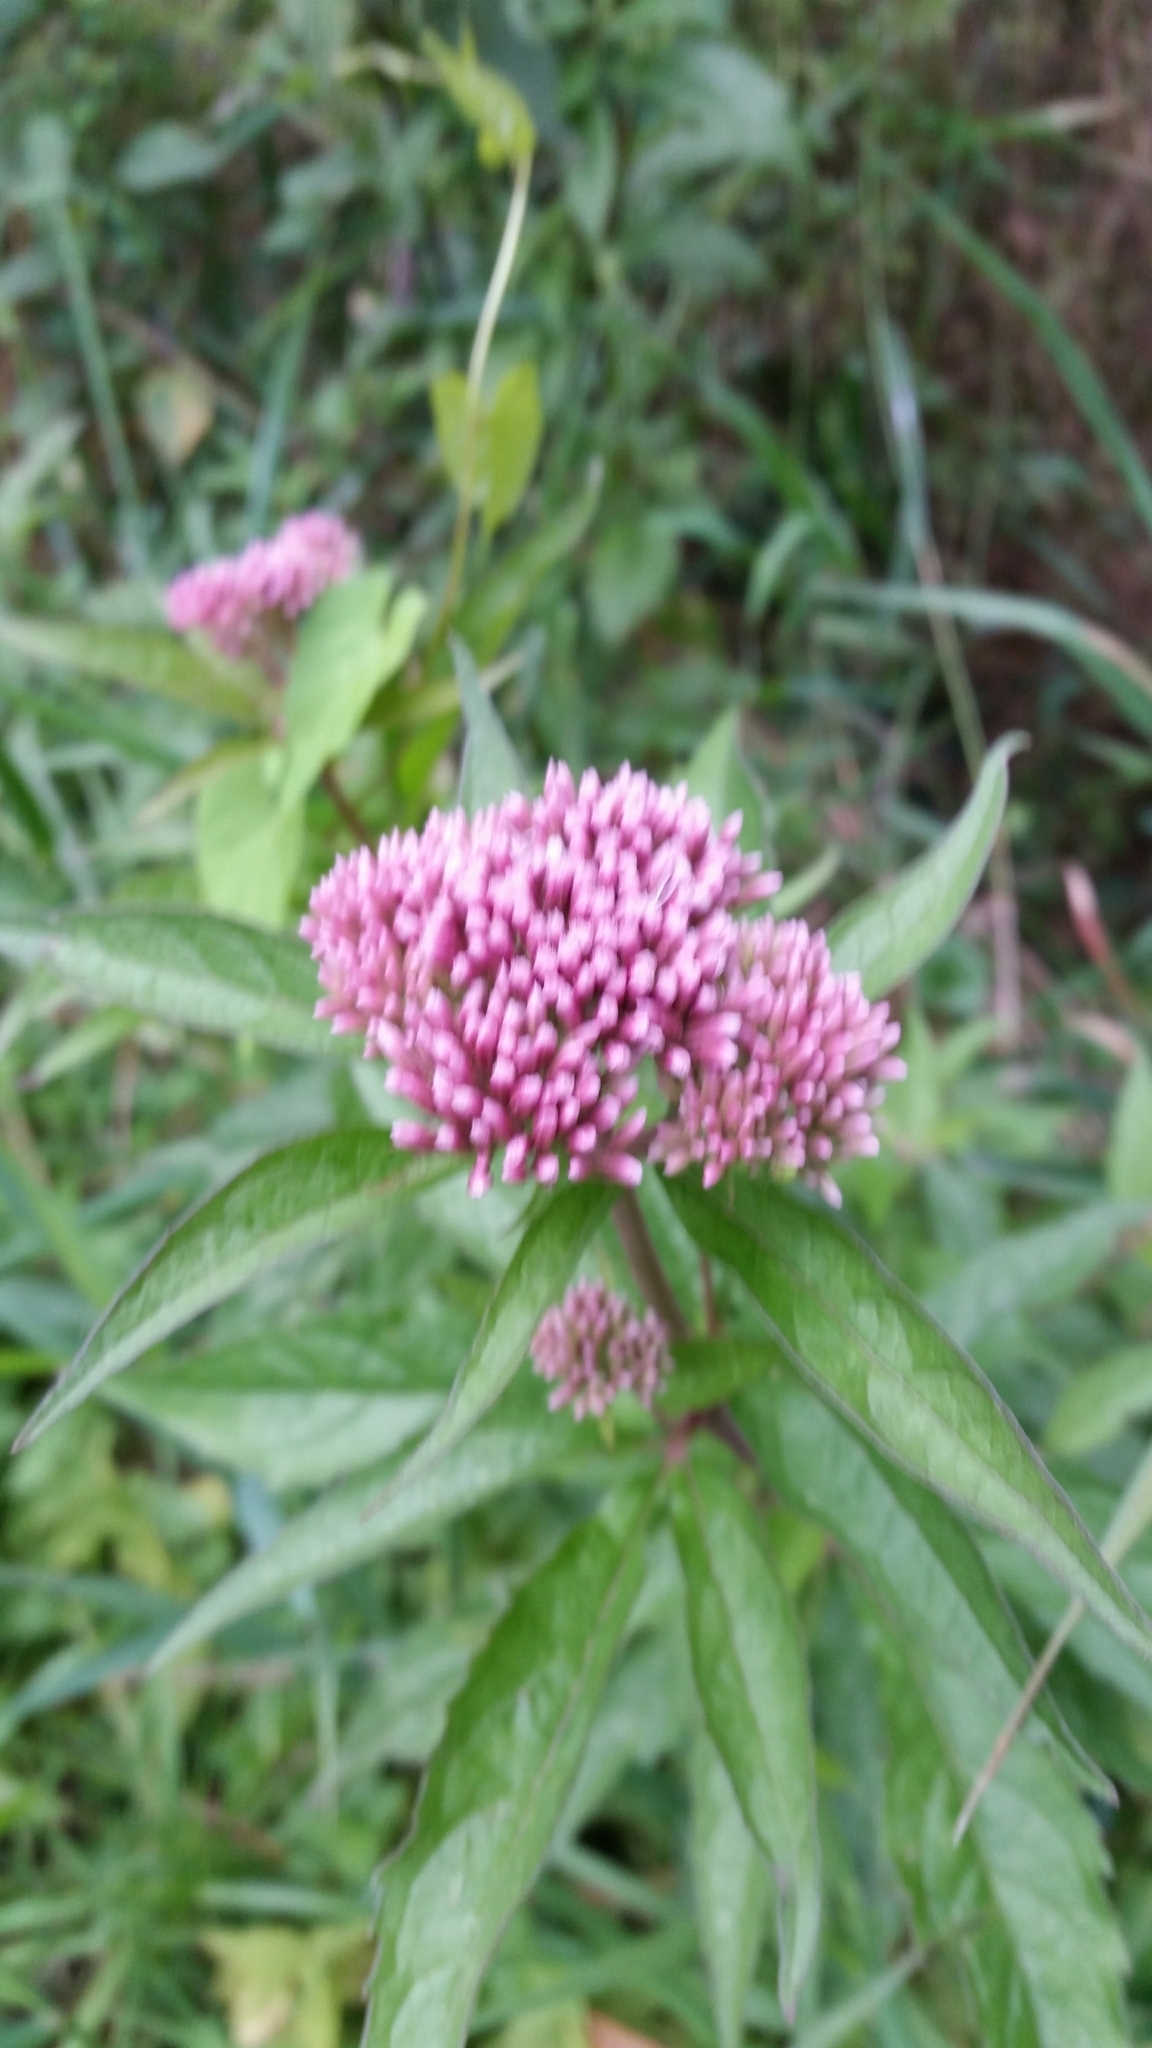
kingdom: Plantae
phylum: Tracheophyta
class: Magnoliopsida
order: Asterales
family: Asteraceae
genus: Eupatorium
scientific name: Eupatorium cannabinum
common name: Hemp-agrimony
